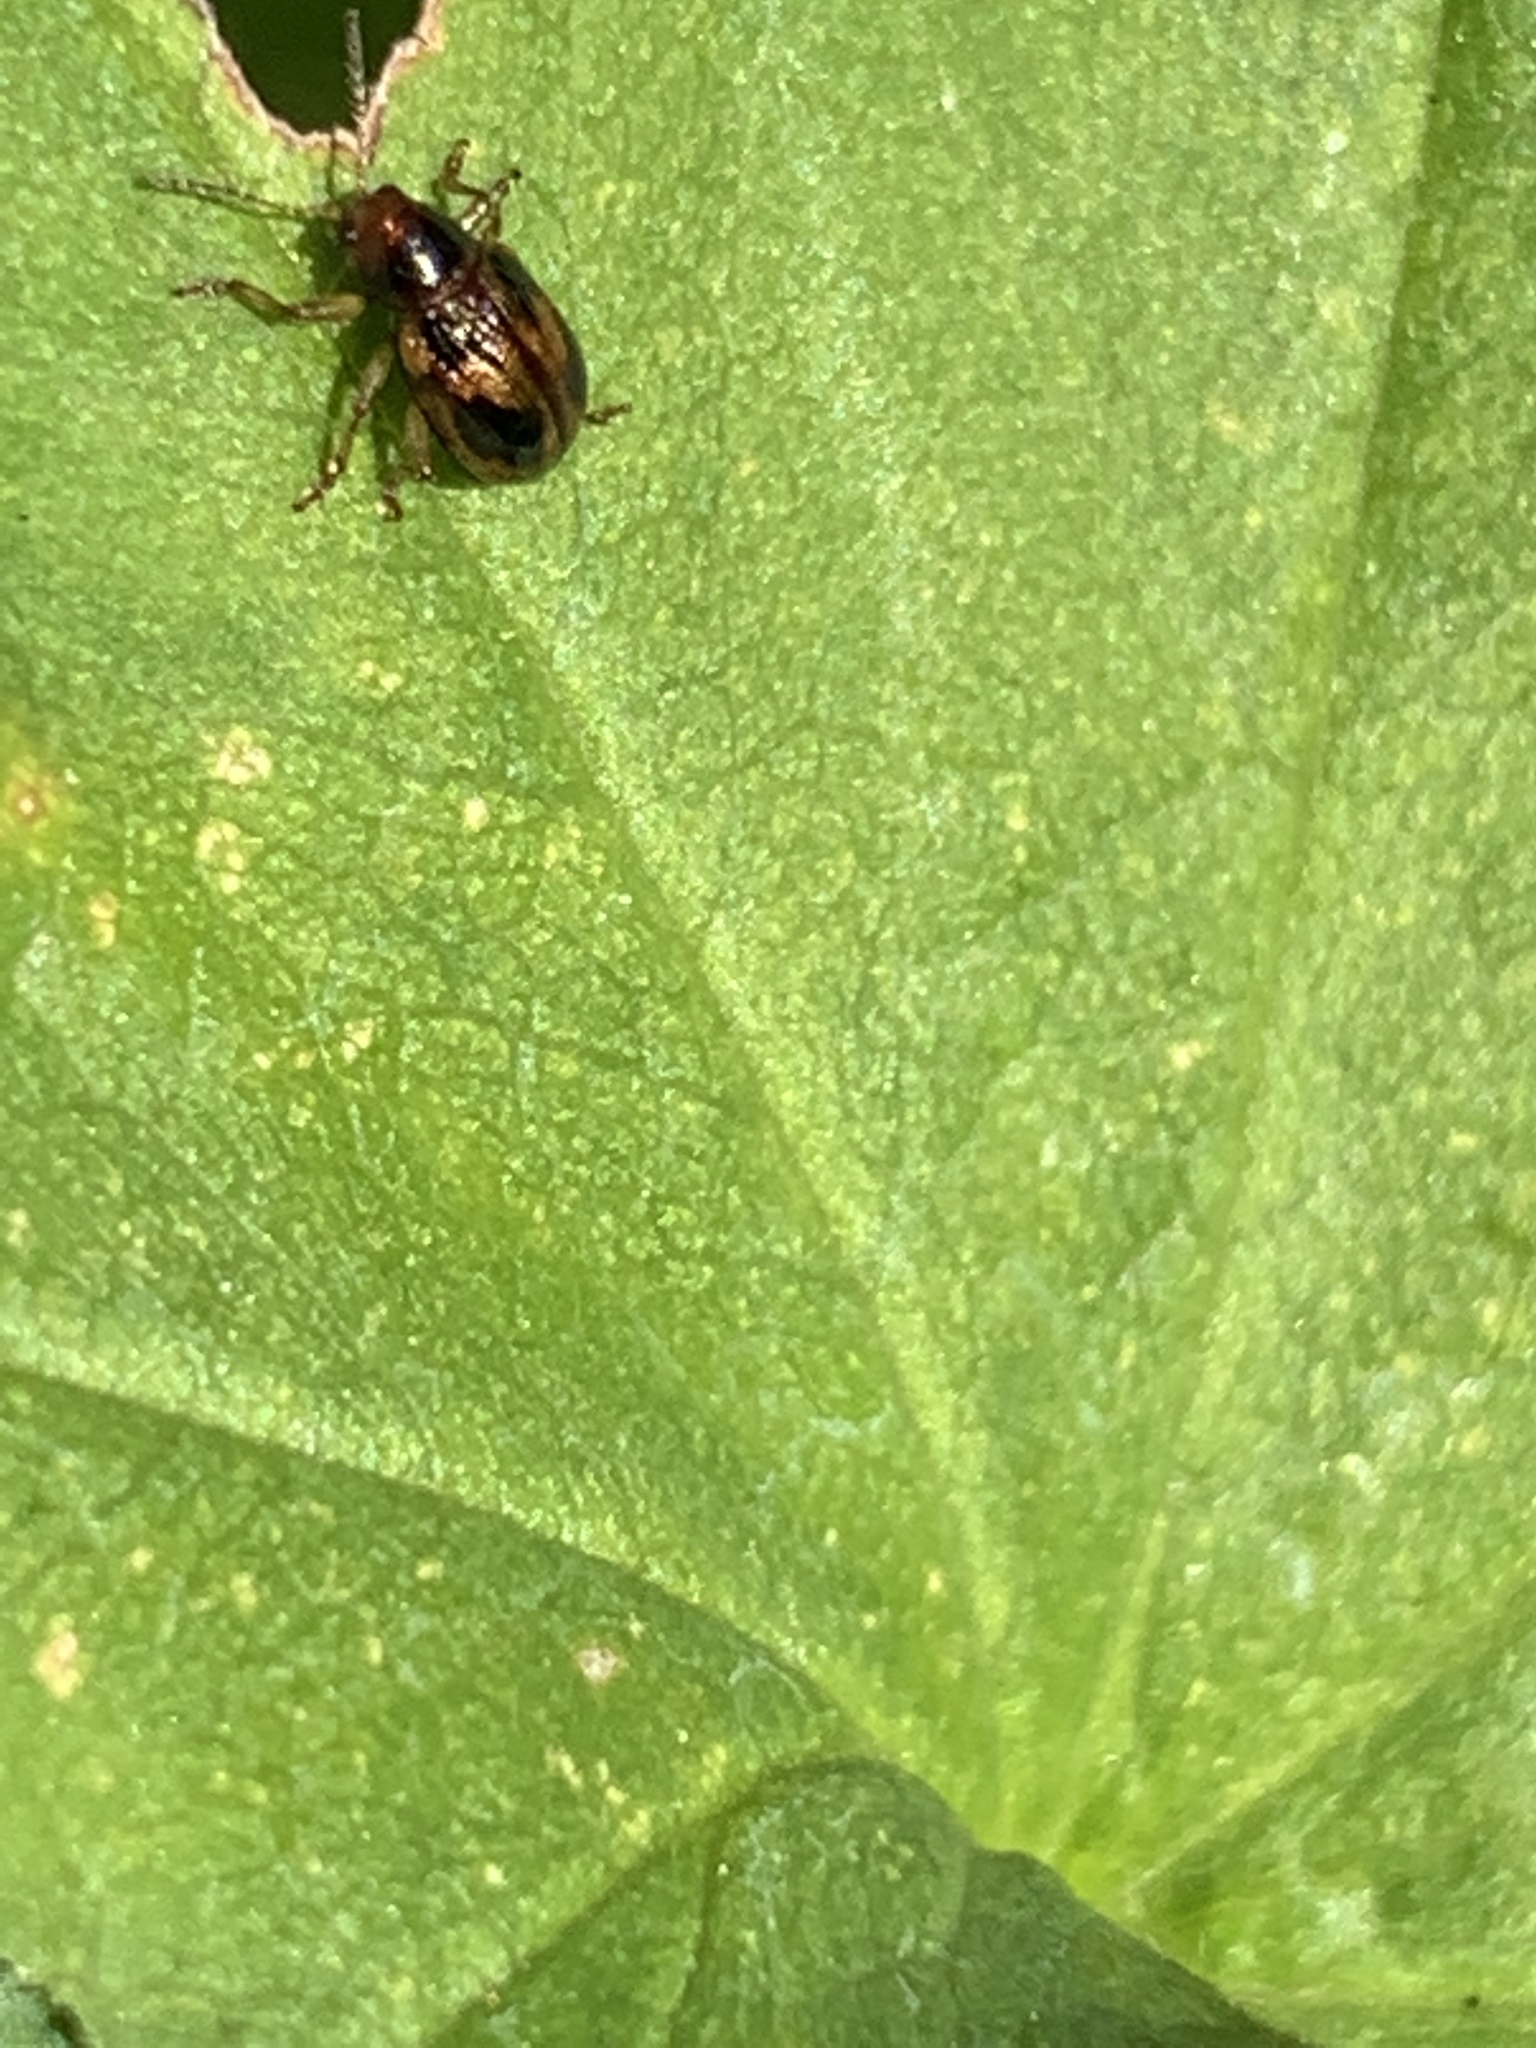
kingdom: Animalia
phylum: Arthropoda
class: Insecta
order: Coleoptera
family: Chrysomelidae
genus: Paria
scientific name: Paria quadrinotata
